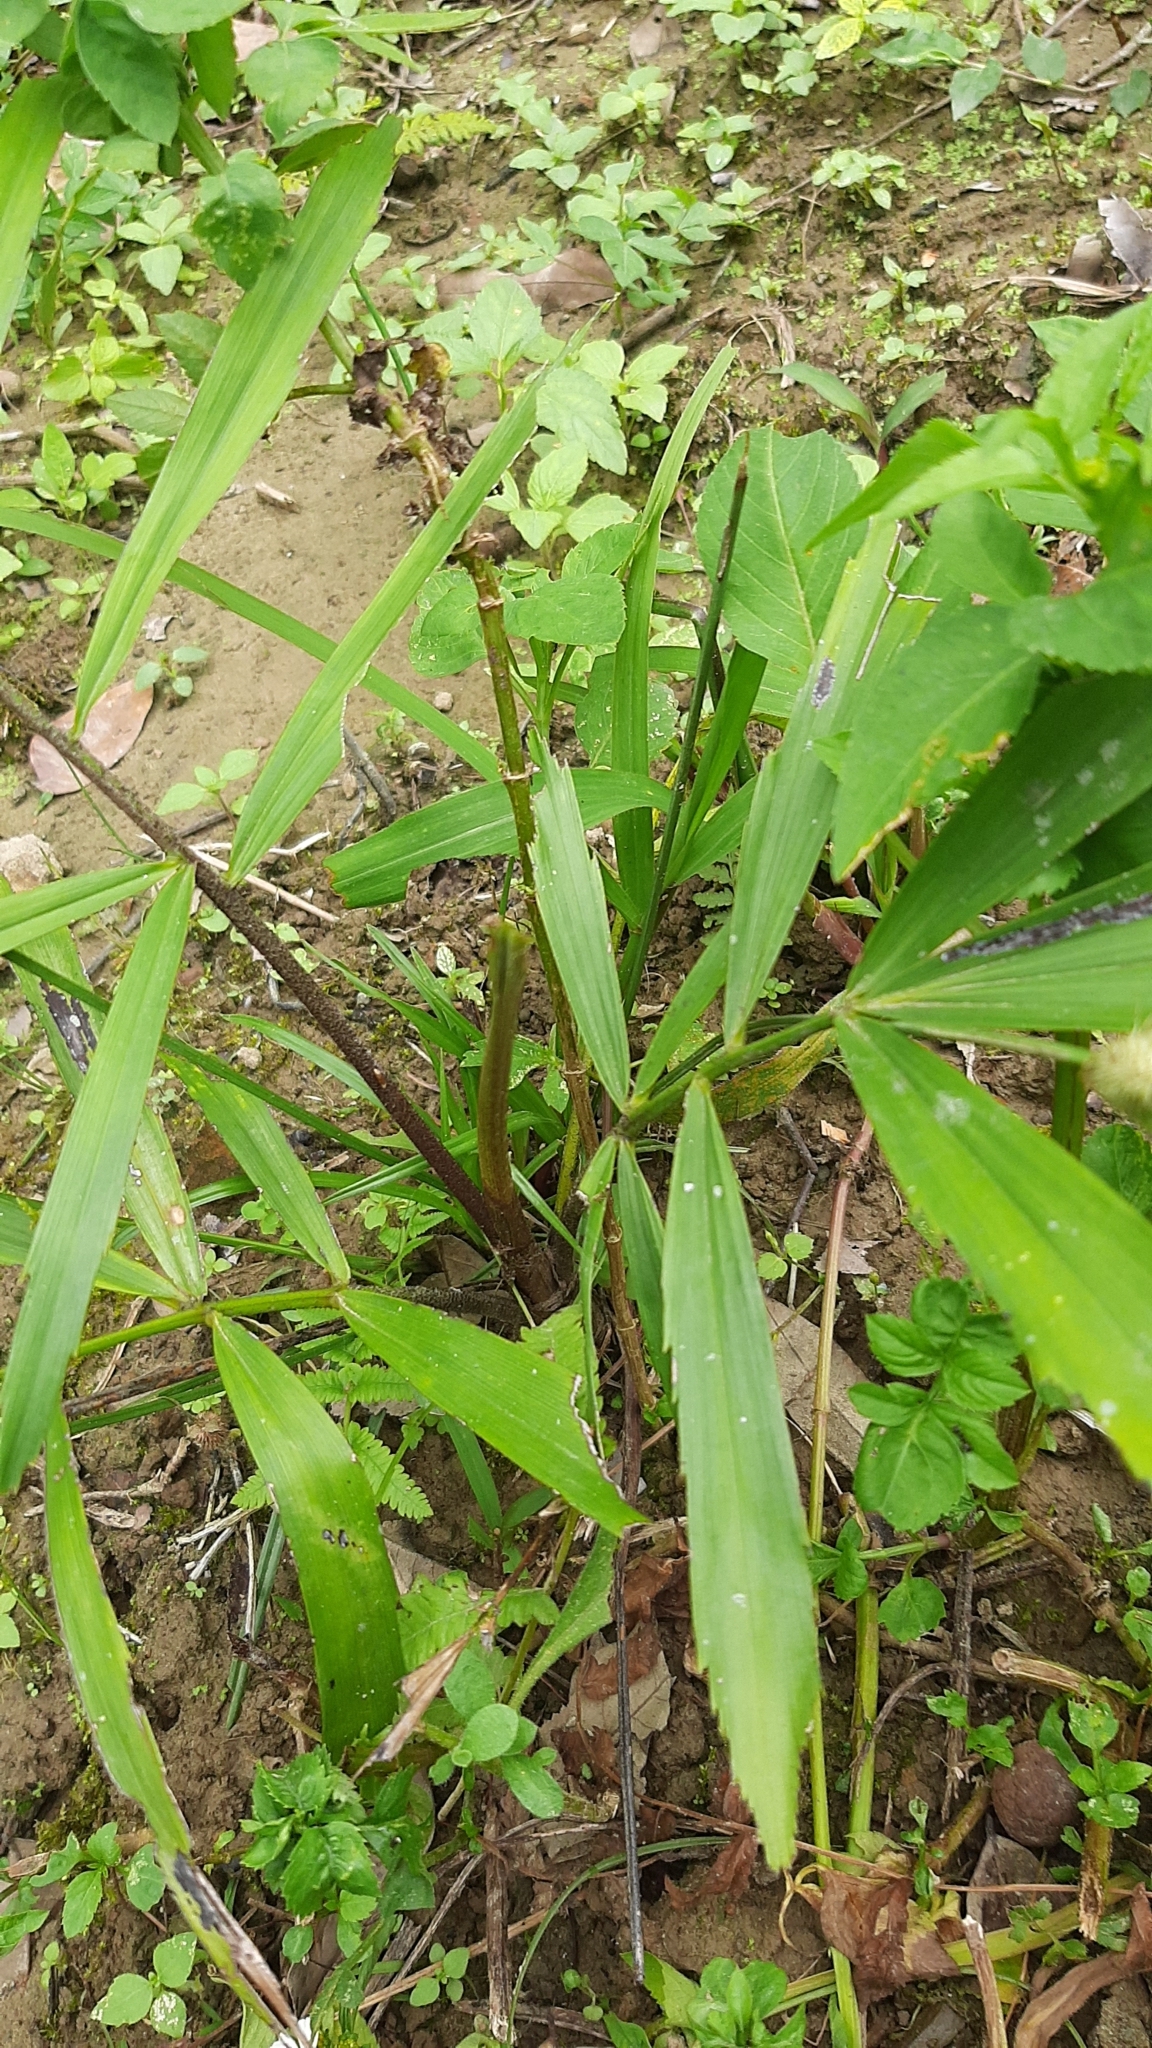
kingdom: Plantae
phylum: Tracheophyta
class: Liliopsida
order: Arecales
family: Arecaceae
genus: Arenga
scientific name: Arenga engleri
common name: Formosan sugar palm
